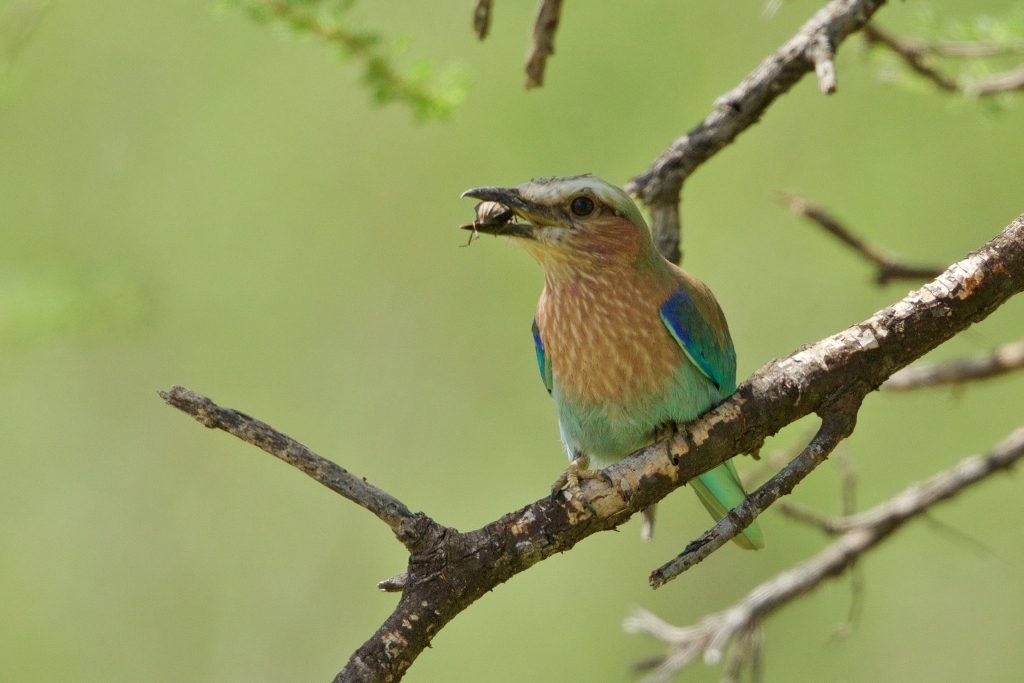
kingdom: Animalia
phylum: Chordata
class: Aves
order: Coraciiformes
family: Coraciidae
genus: Coracias
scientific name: Coracias caudatus
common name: Lilac-breasted roller
